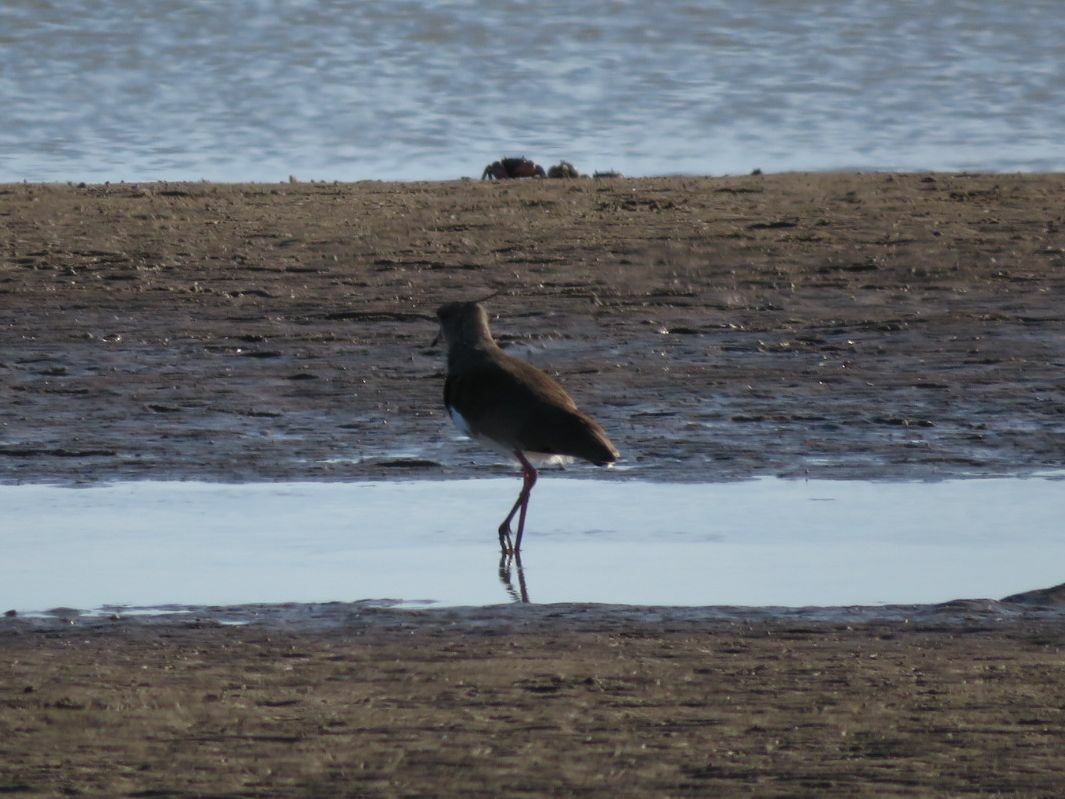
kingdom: Animalia
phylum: Chordata
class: Aves
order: Charadriiformes
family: Charadriidae
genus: Vanellus
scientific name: Vanellus chilensis
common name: Southern lapwing
